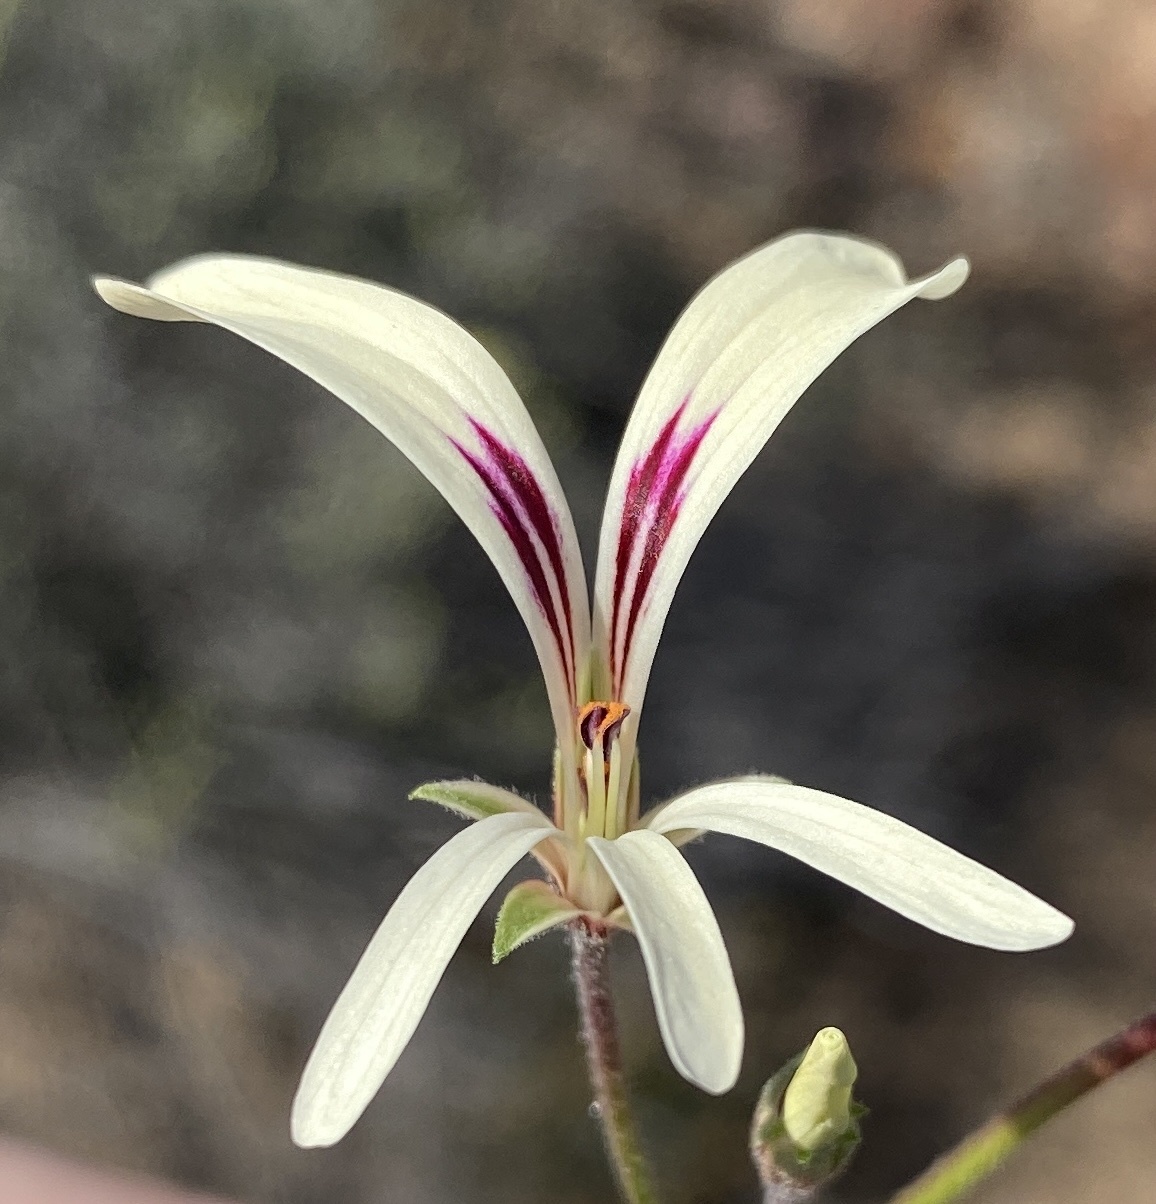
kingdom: Plantae
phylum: Tracheophyta
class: Magnoliopsida
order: Geraniales
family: Geraniaceae
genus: Pelargonium
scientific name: Pelargonium trifidum
